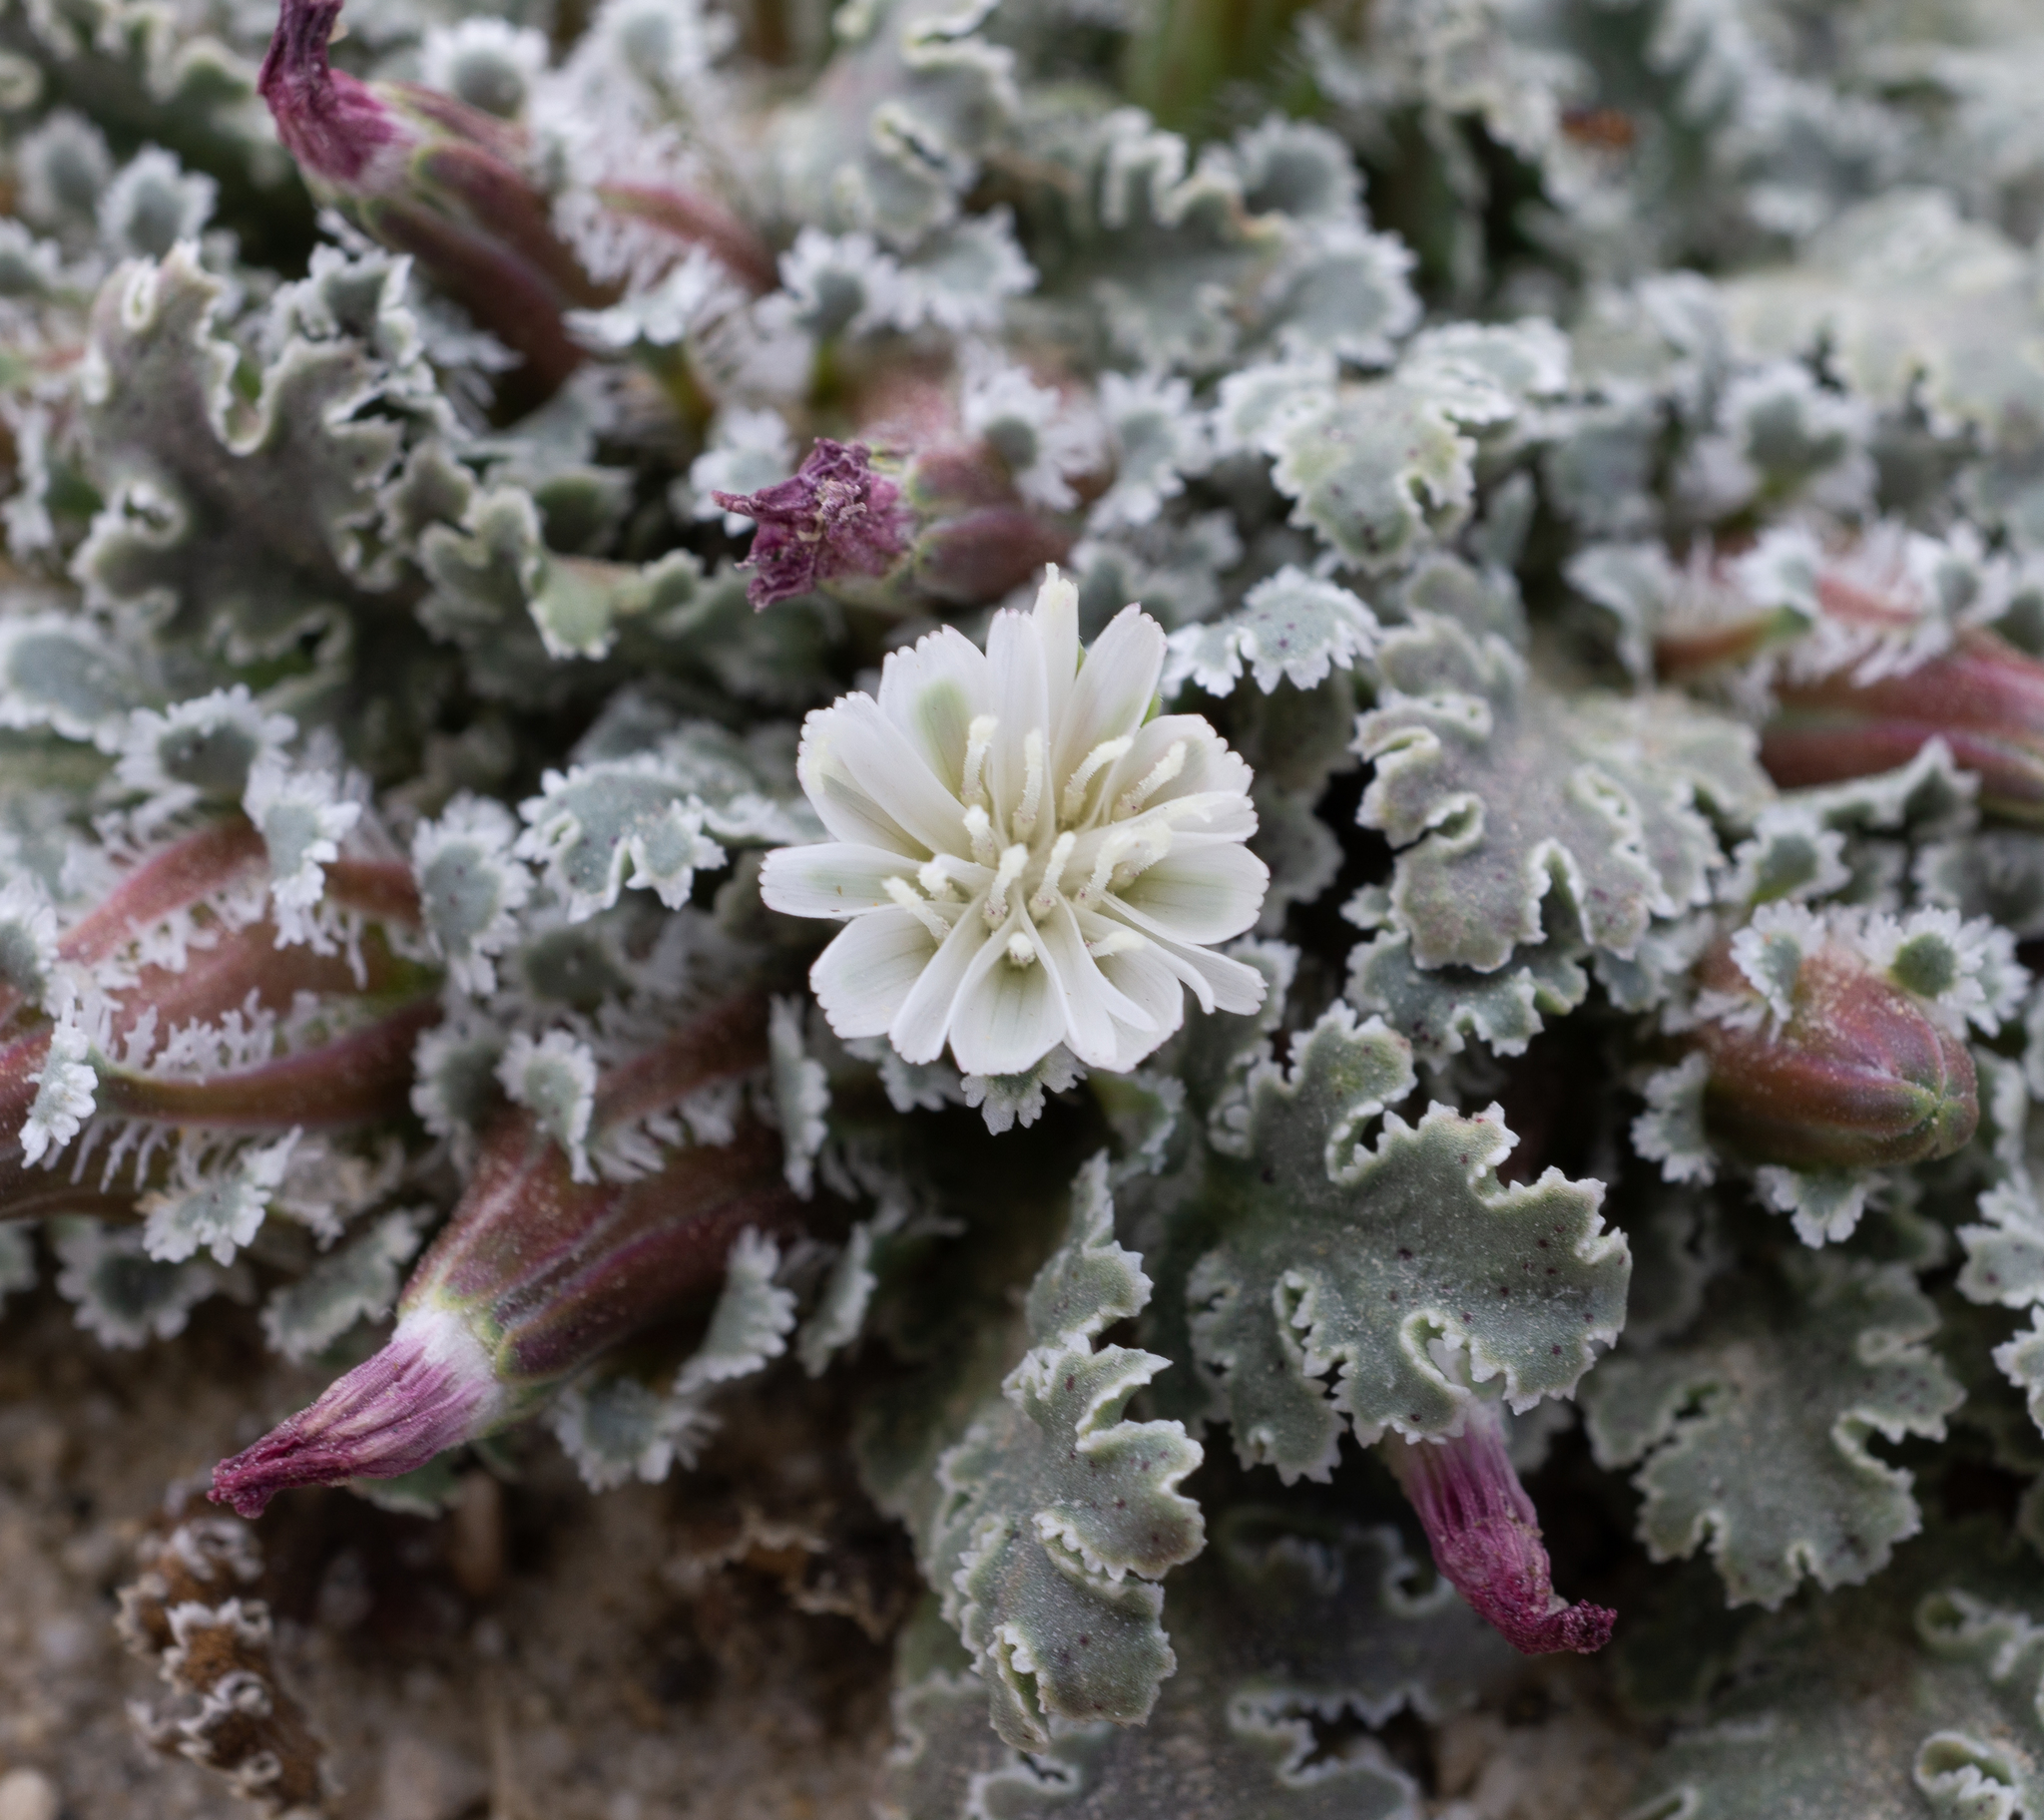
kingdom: Plantae
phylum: Tracheophyta
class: Magnoliopsida
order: Asterales
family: Asteraceae
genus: Glyptopleura
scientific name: Glyptopleura marginata
